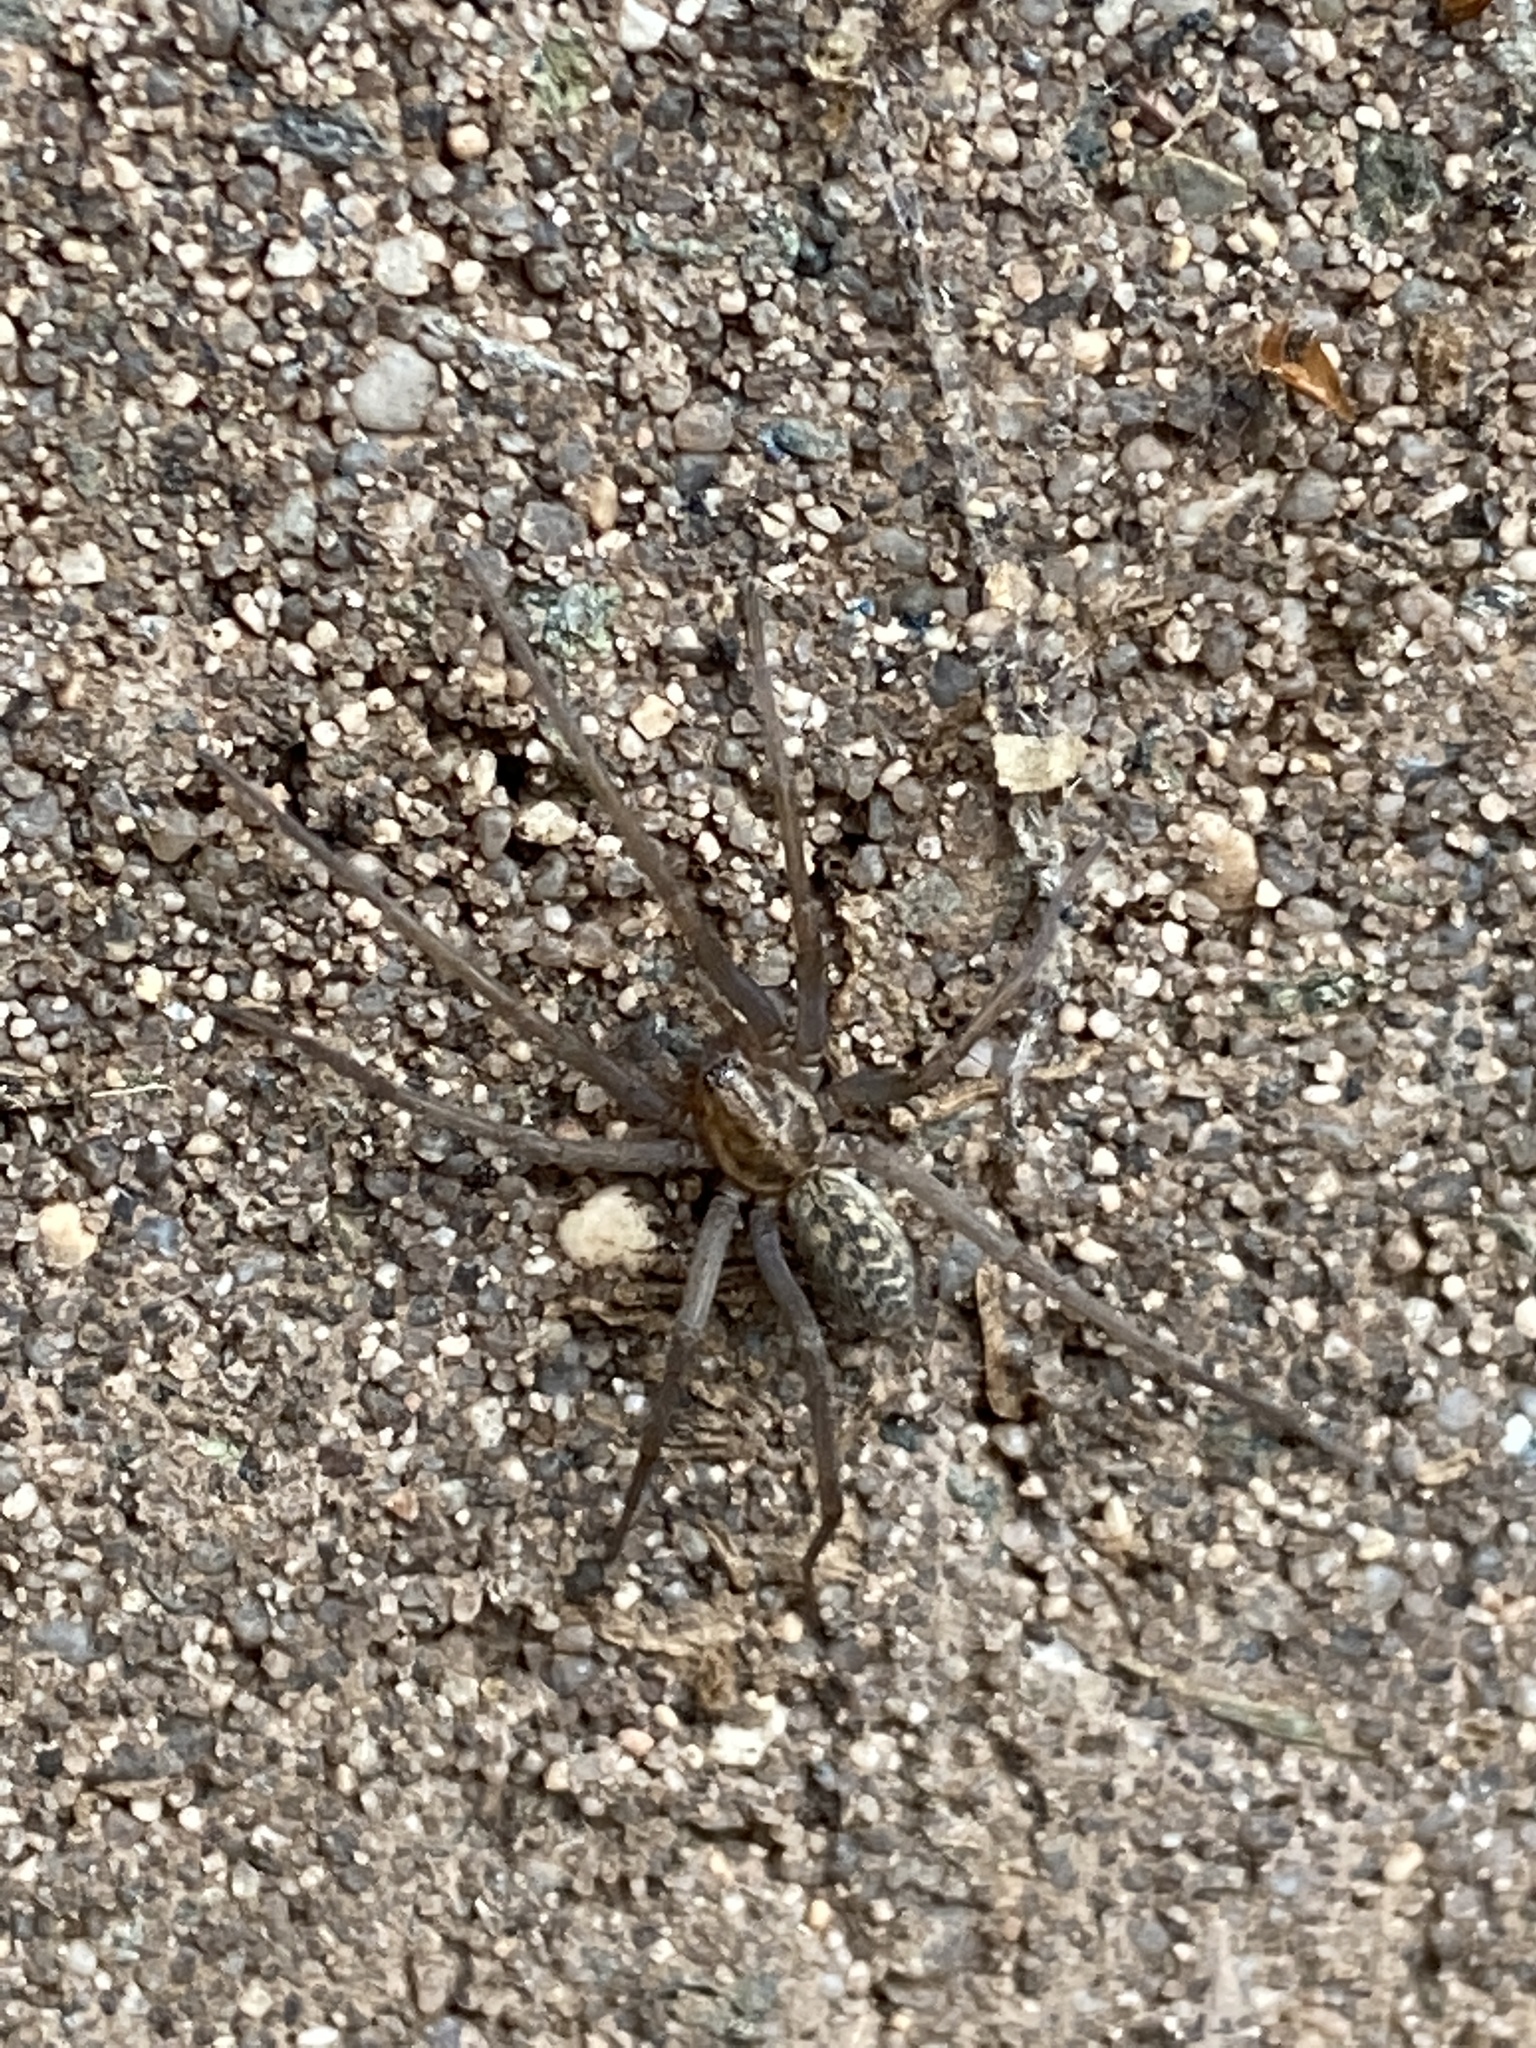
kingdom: Animalia
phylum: Arthropoda
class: Arachnida
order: Araneae
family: Agelenidae
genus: Eratigena
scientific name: Eratigena atrica
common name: Giant house spider
